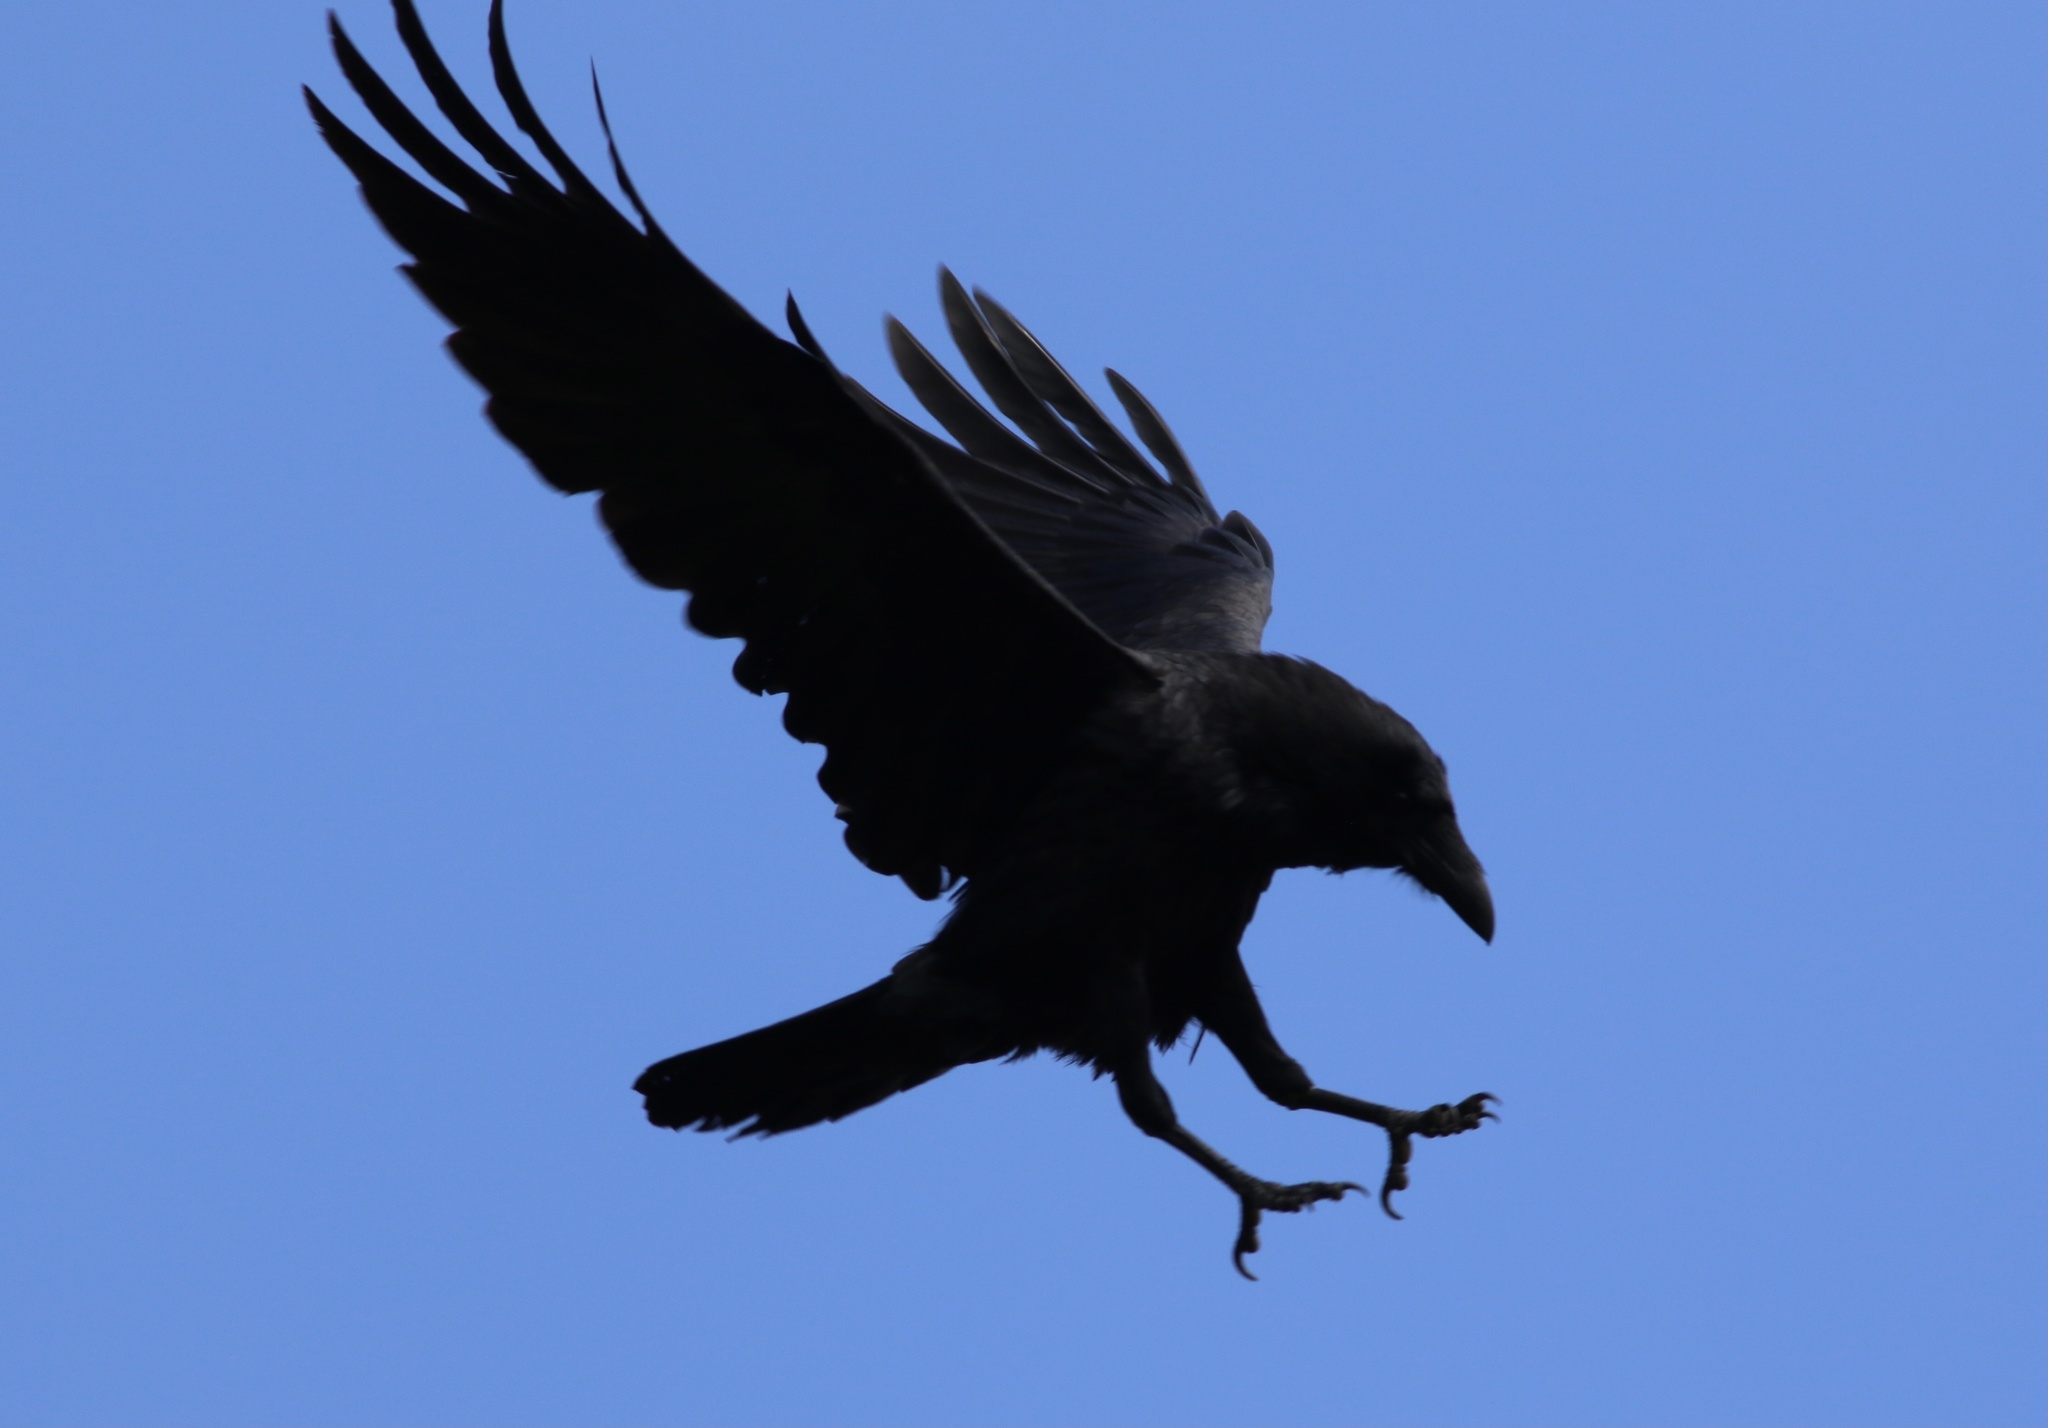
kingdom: Animalia
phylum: Chordata
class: Aves
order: Passeriformes
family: Corvidae
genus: Corvus
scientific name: Corvus corax
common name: Common raven
